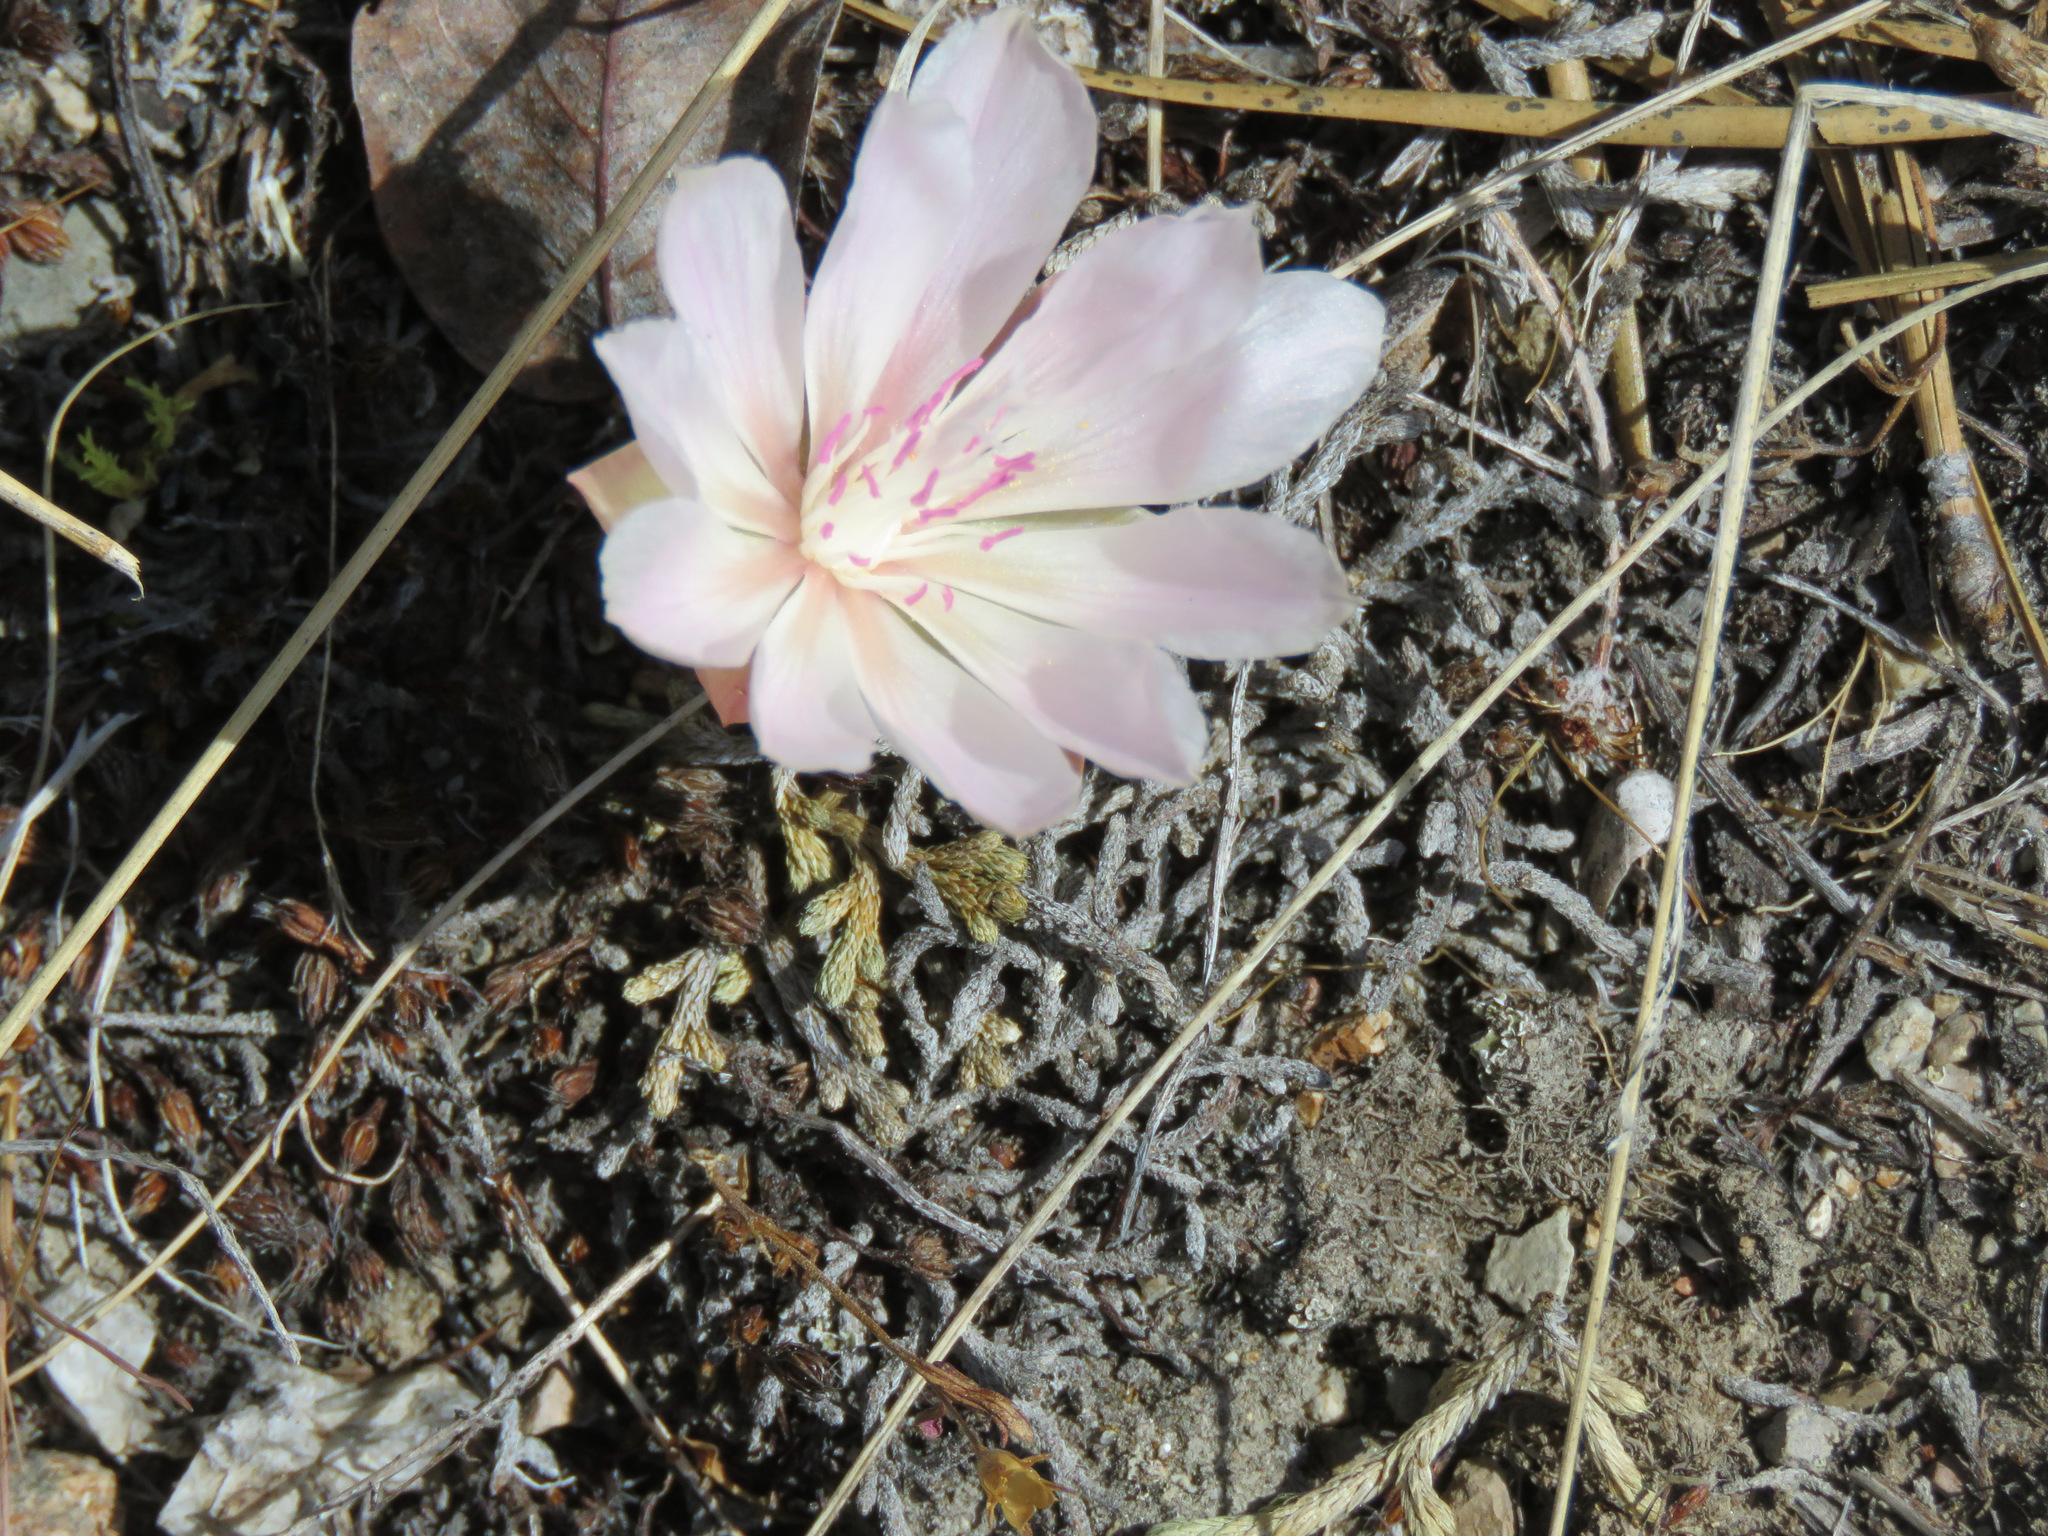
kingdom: Plantae
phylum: Tracheophyta
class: Magnoliopsida
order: Caryophyllales
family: Montiaceae
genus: Lewisia
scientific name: Lewisia rediviva
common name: Bitter-root
